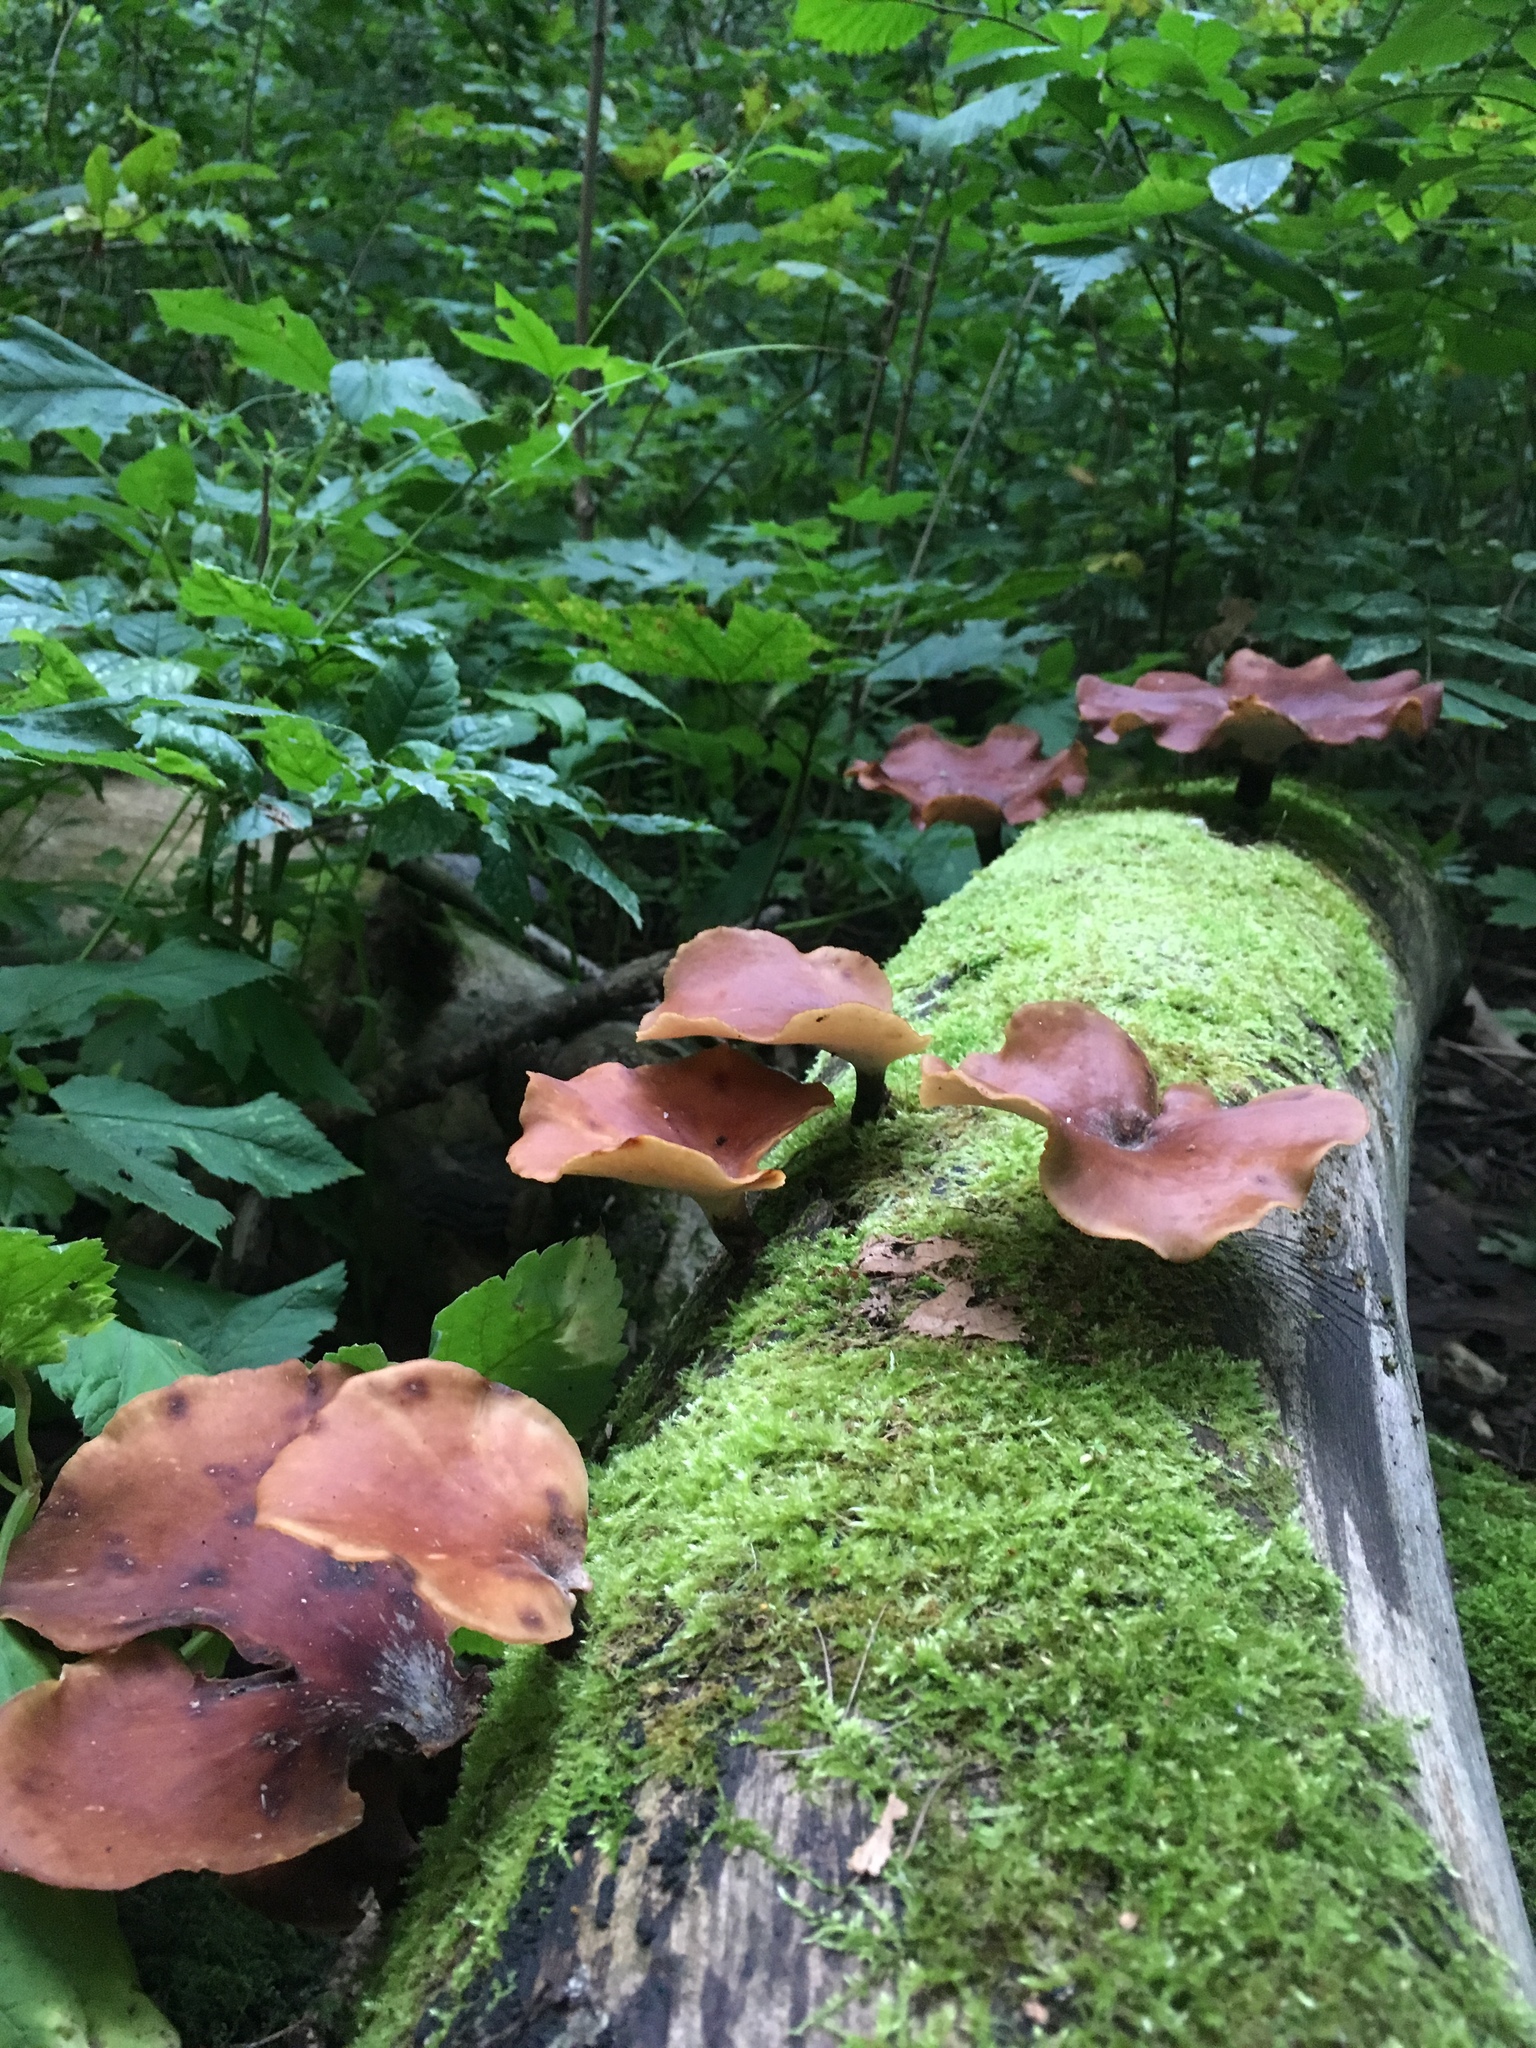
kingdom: Fungi
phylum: Basidiomycota
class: Agaricomycetes
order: Polyporales
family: Polyporaceae
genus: Picipes
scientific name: Picipes badius
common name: Bay polypore
